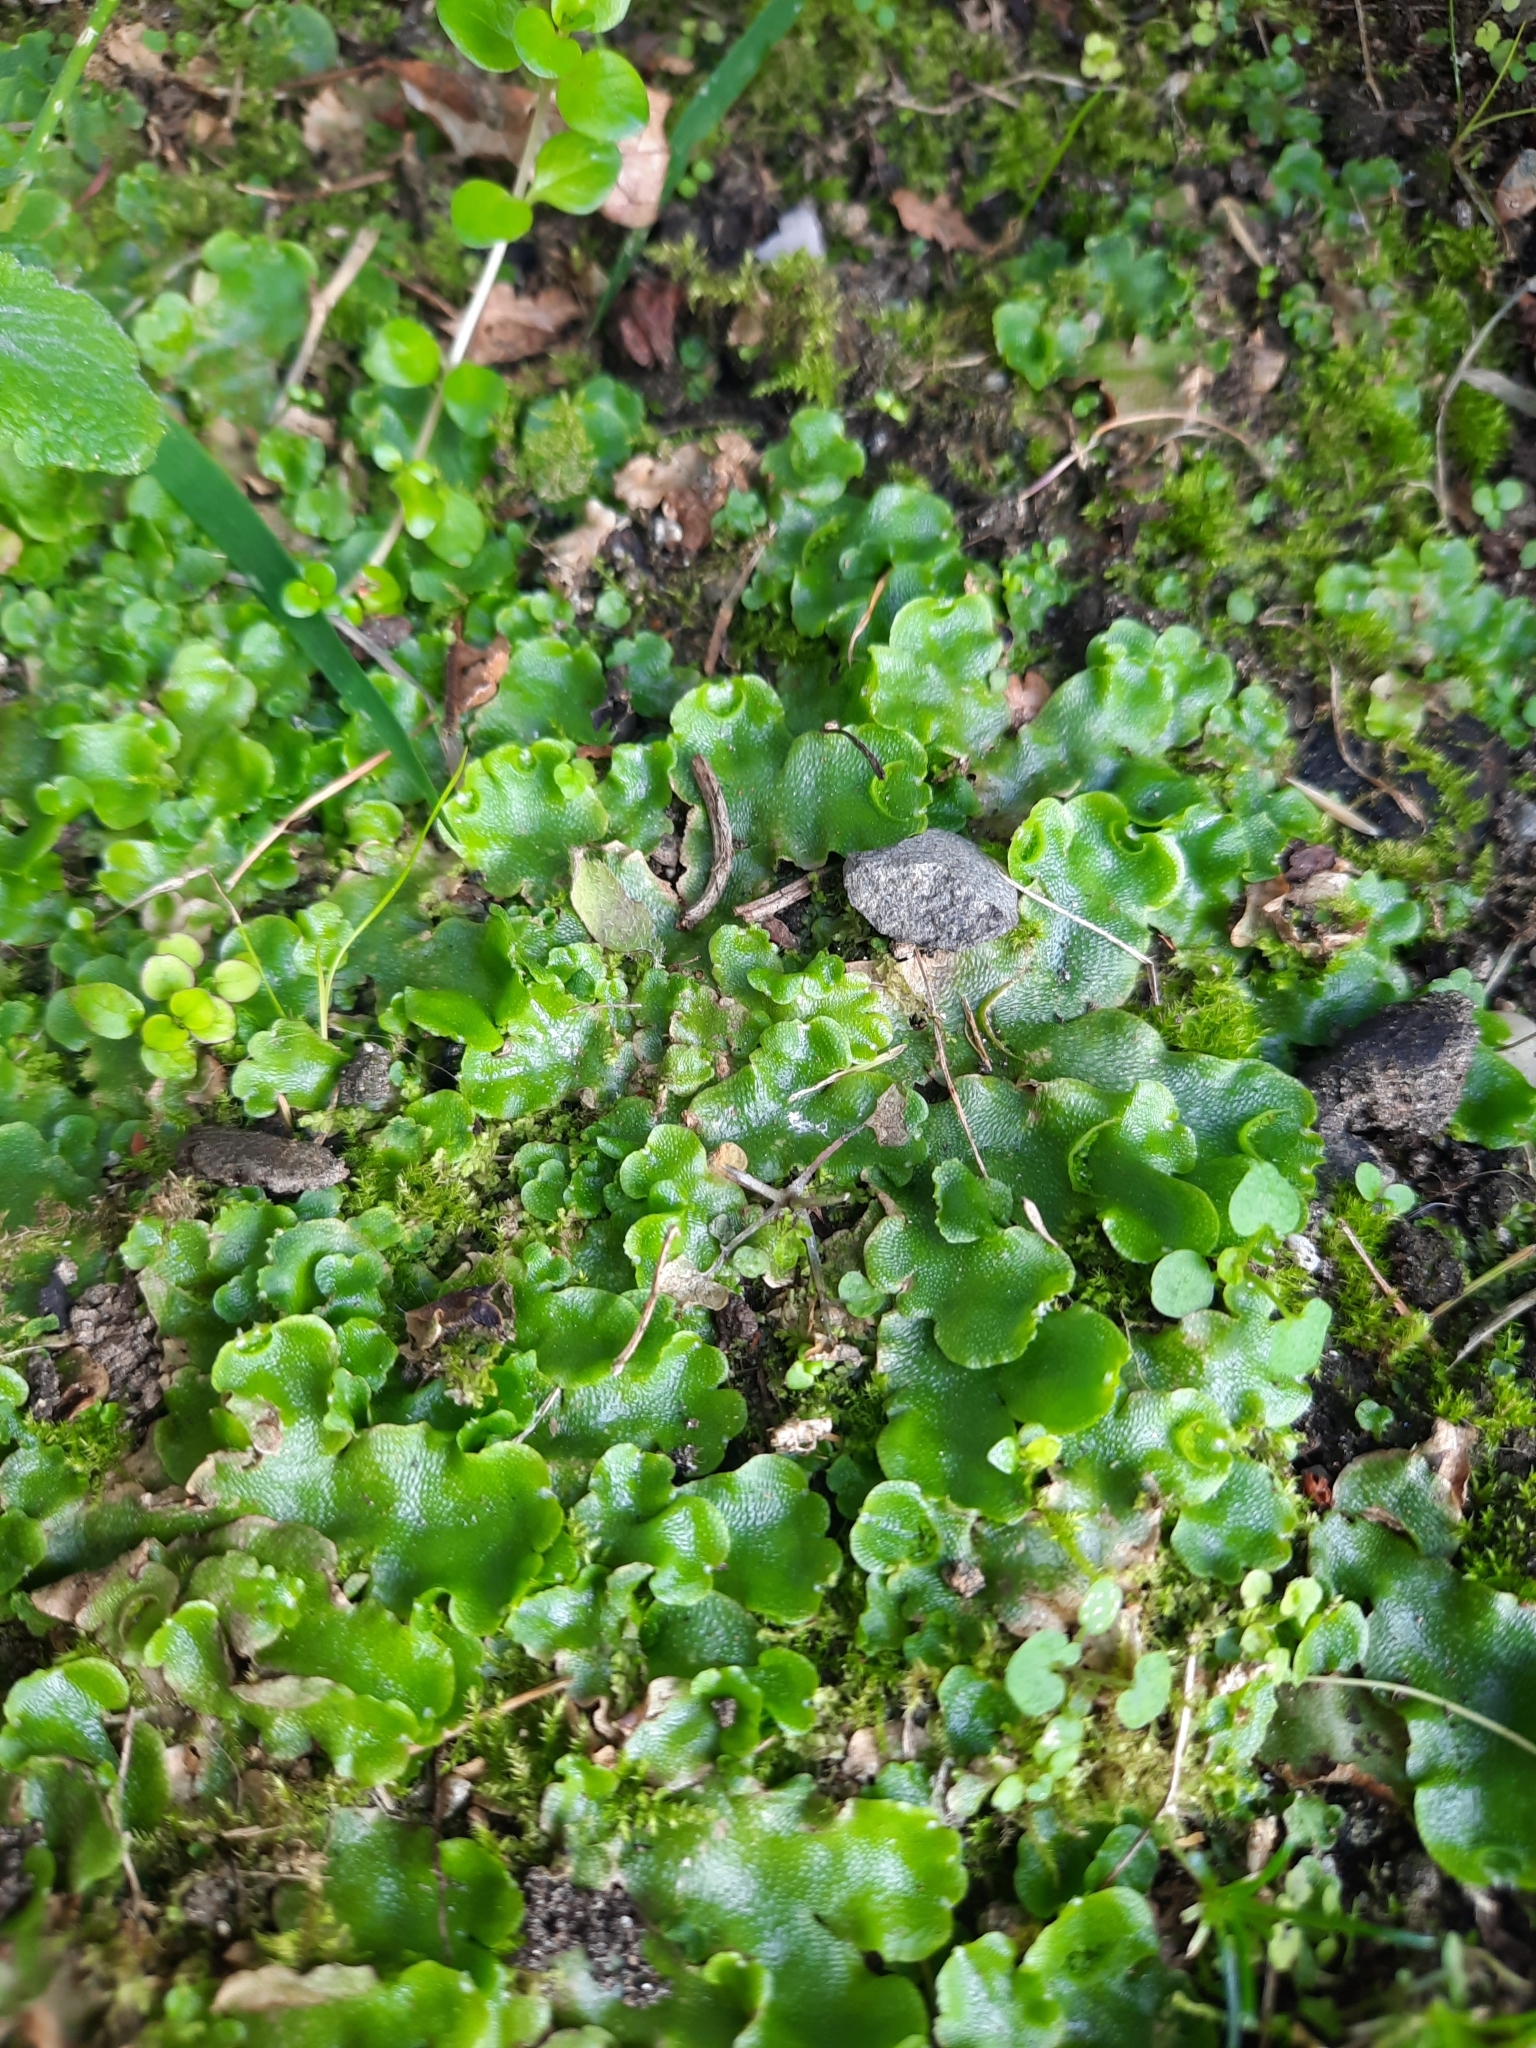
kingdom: Plantae
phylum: Marchantiophyta
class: Marchantiopsida
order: Lunulariales
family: Lunulariaceae
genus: Lunularia
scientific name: Lunularia cruciata
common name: Crescent-cup liverwort
